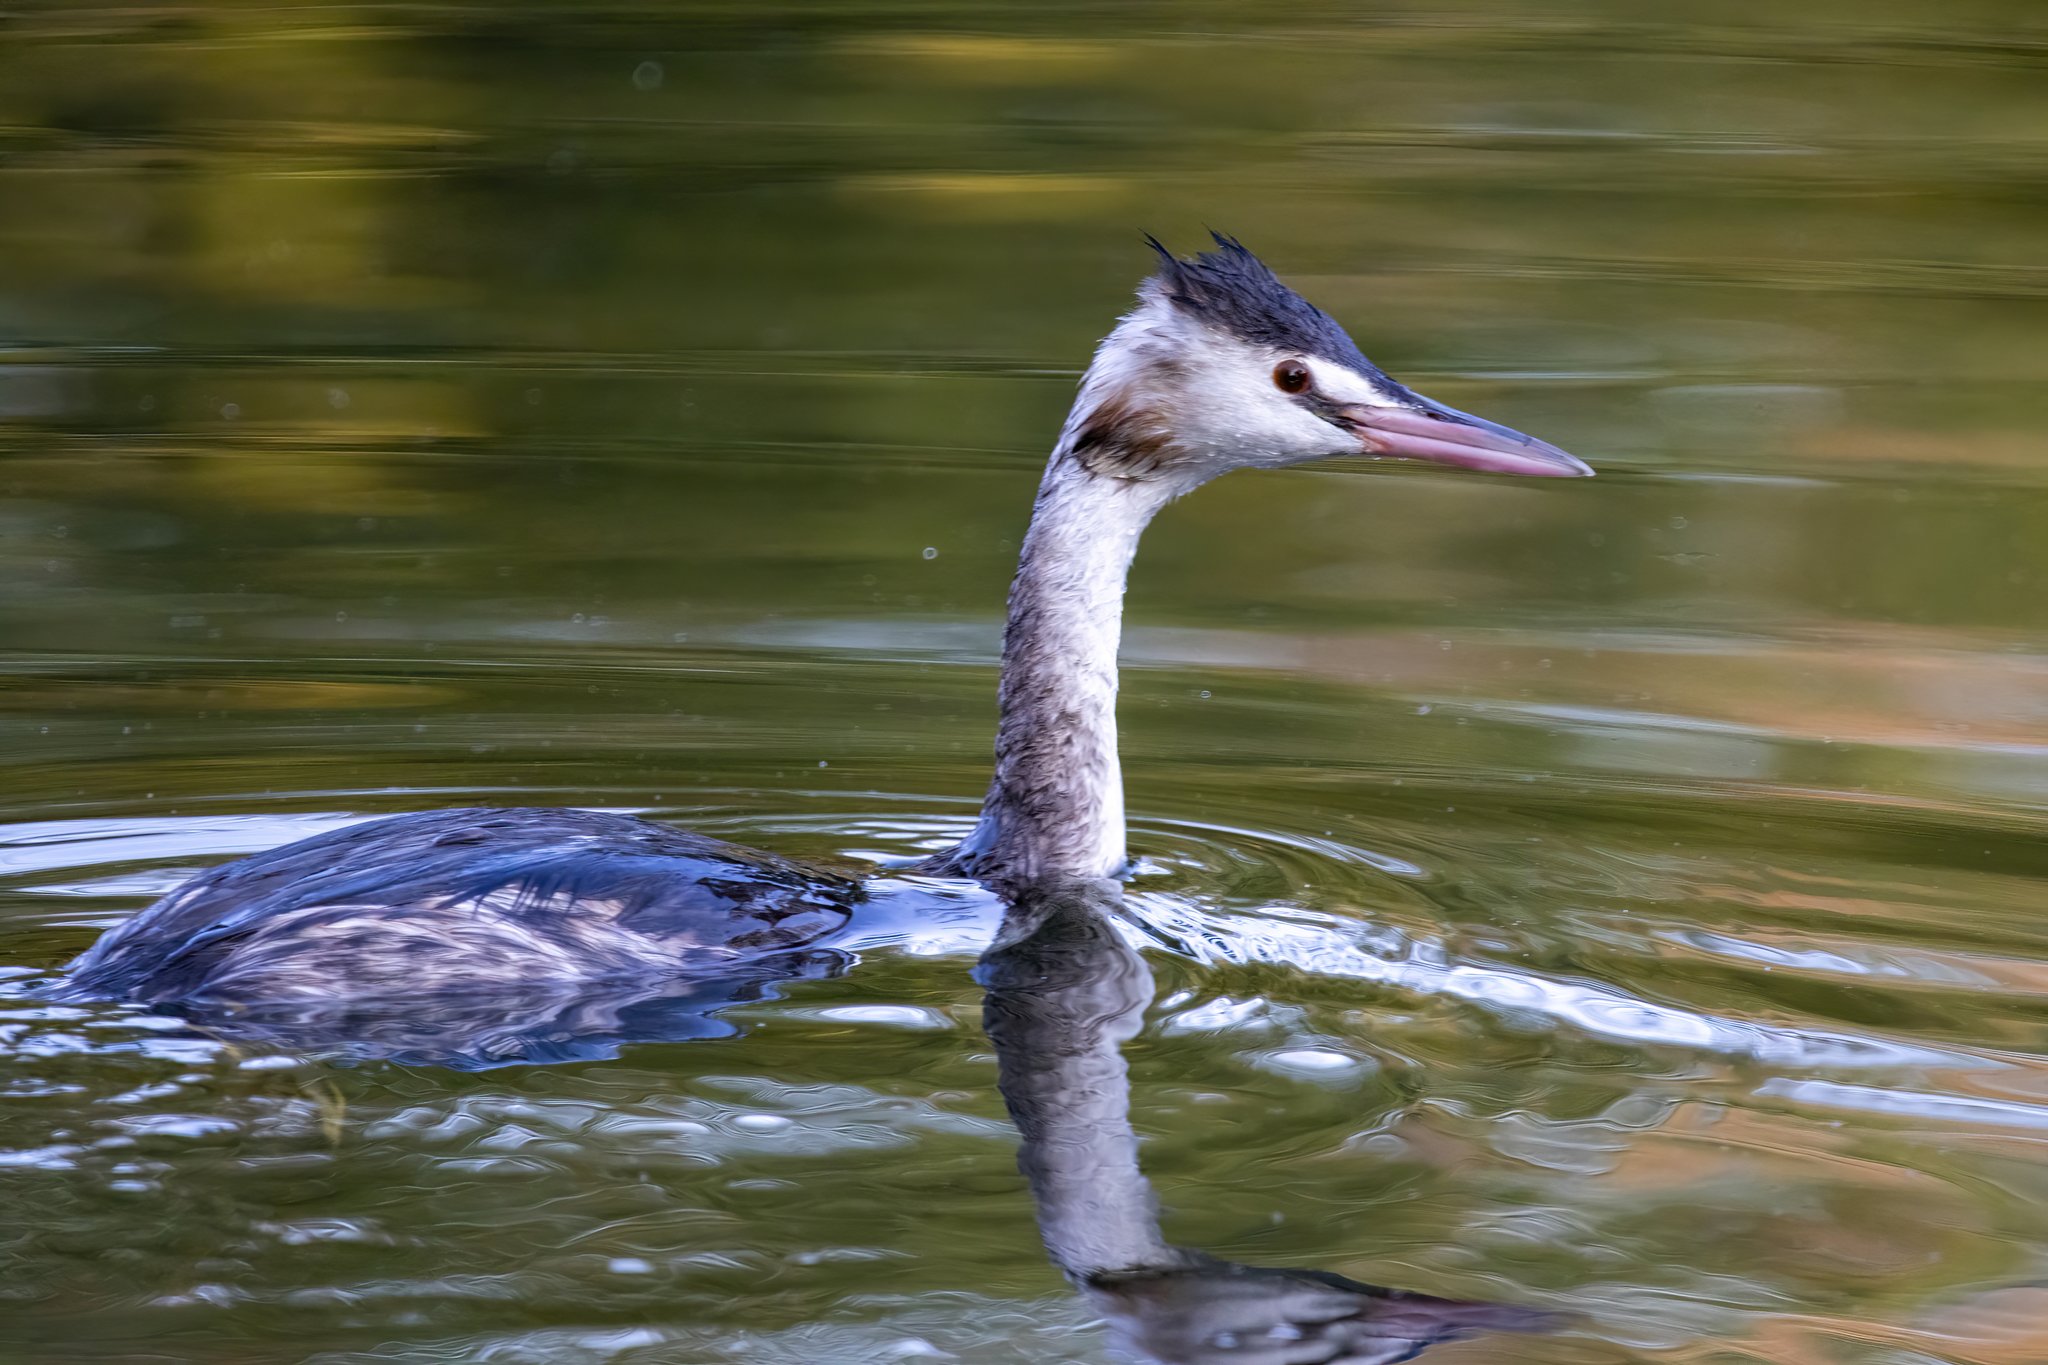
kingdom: Animalia
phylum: Chordata
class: Aves
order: Podicipediformes
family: Podicipedidae
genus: Podiceps
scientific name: Podiceps cristatus
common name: Great crested grebe
